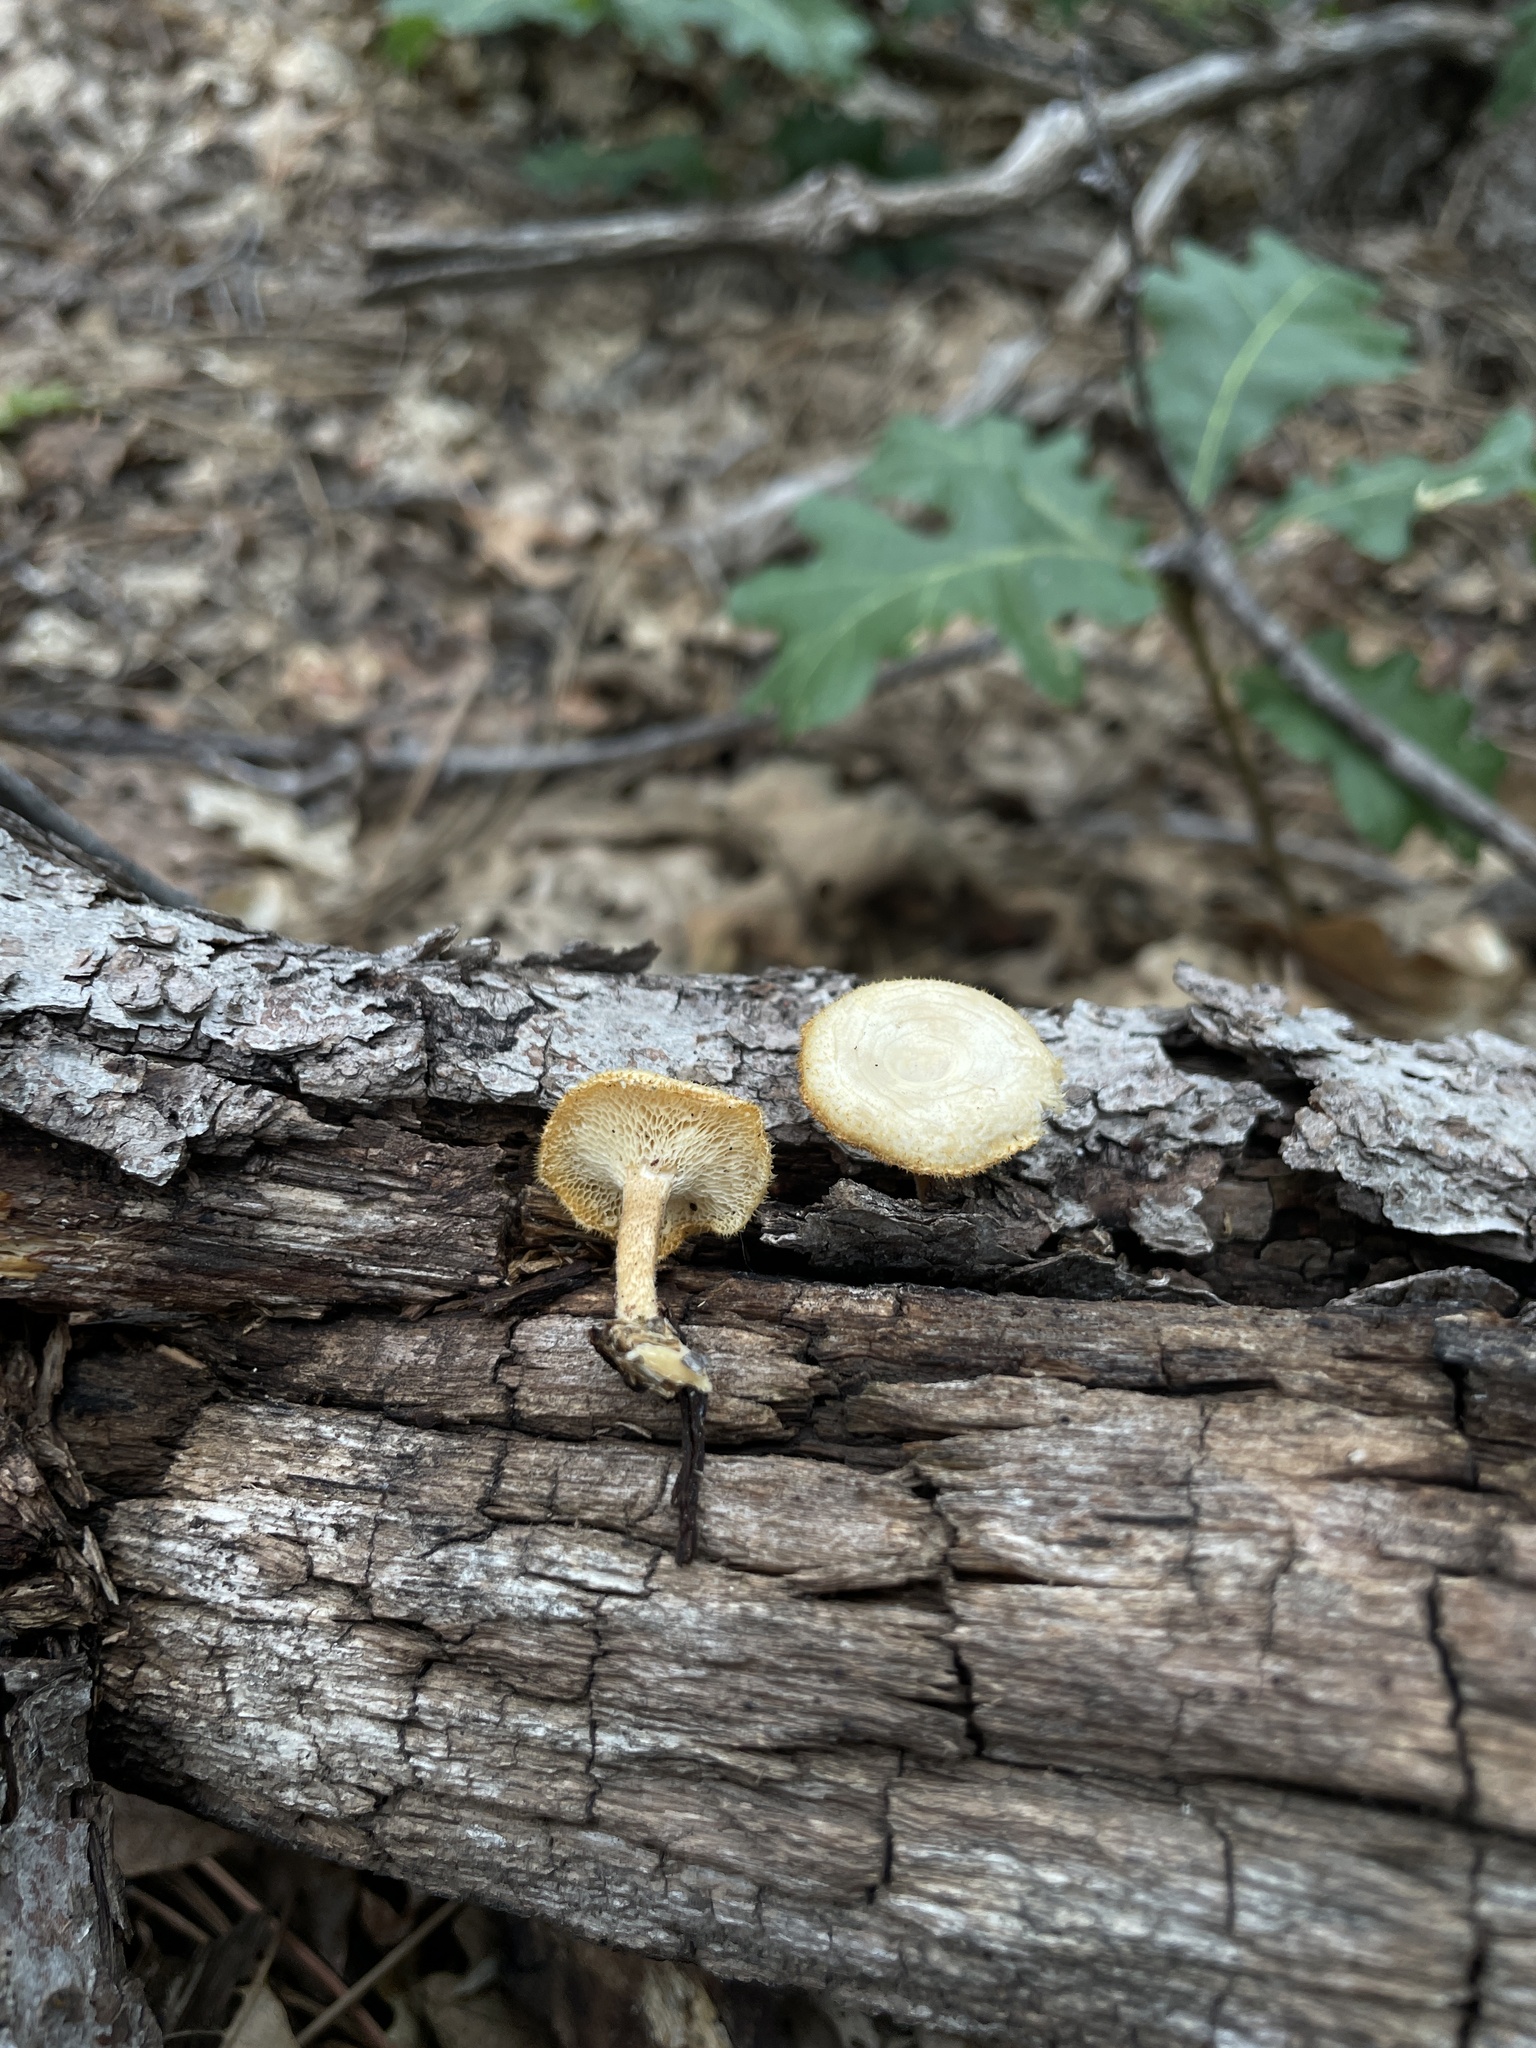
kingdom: Fungi
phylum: Basidiomycota
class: Agaricomycetes
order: Polyporales
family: Polyporaceae
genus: Lentinus
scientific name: Lentinus arcularius
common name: Spring polypore
